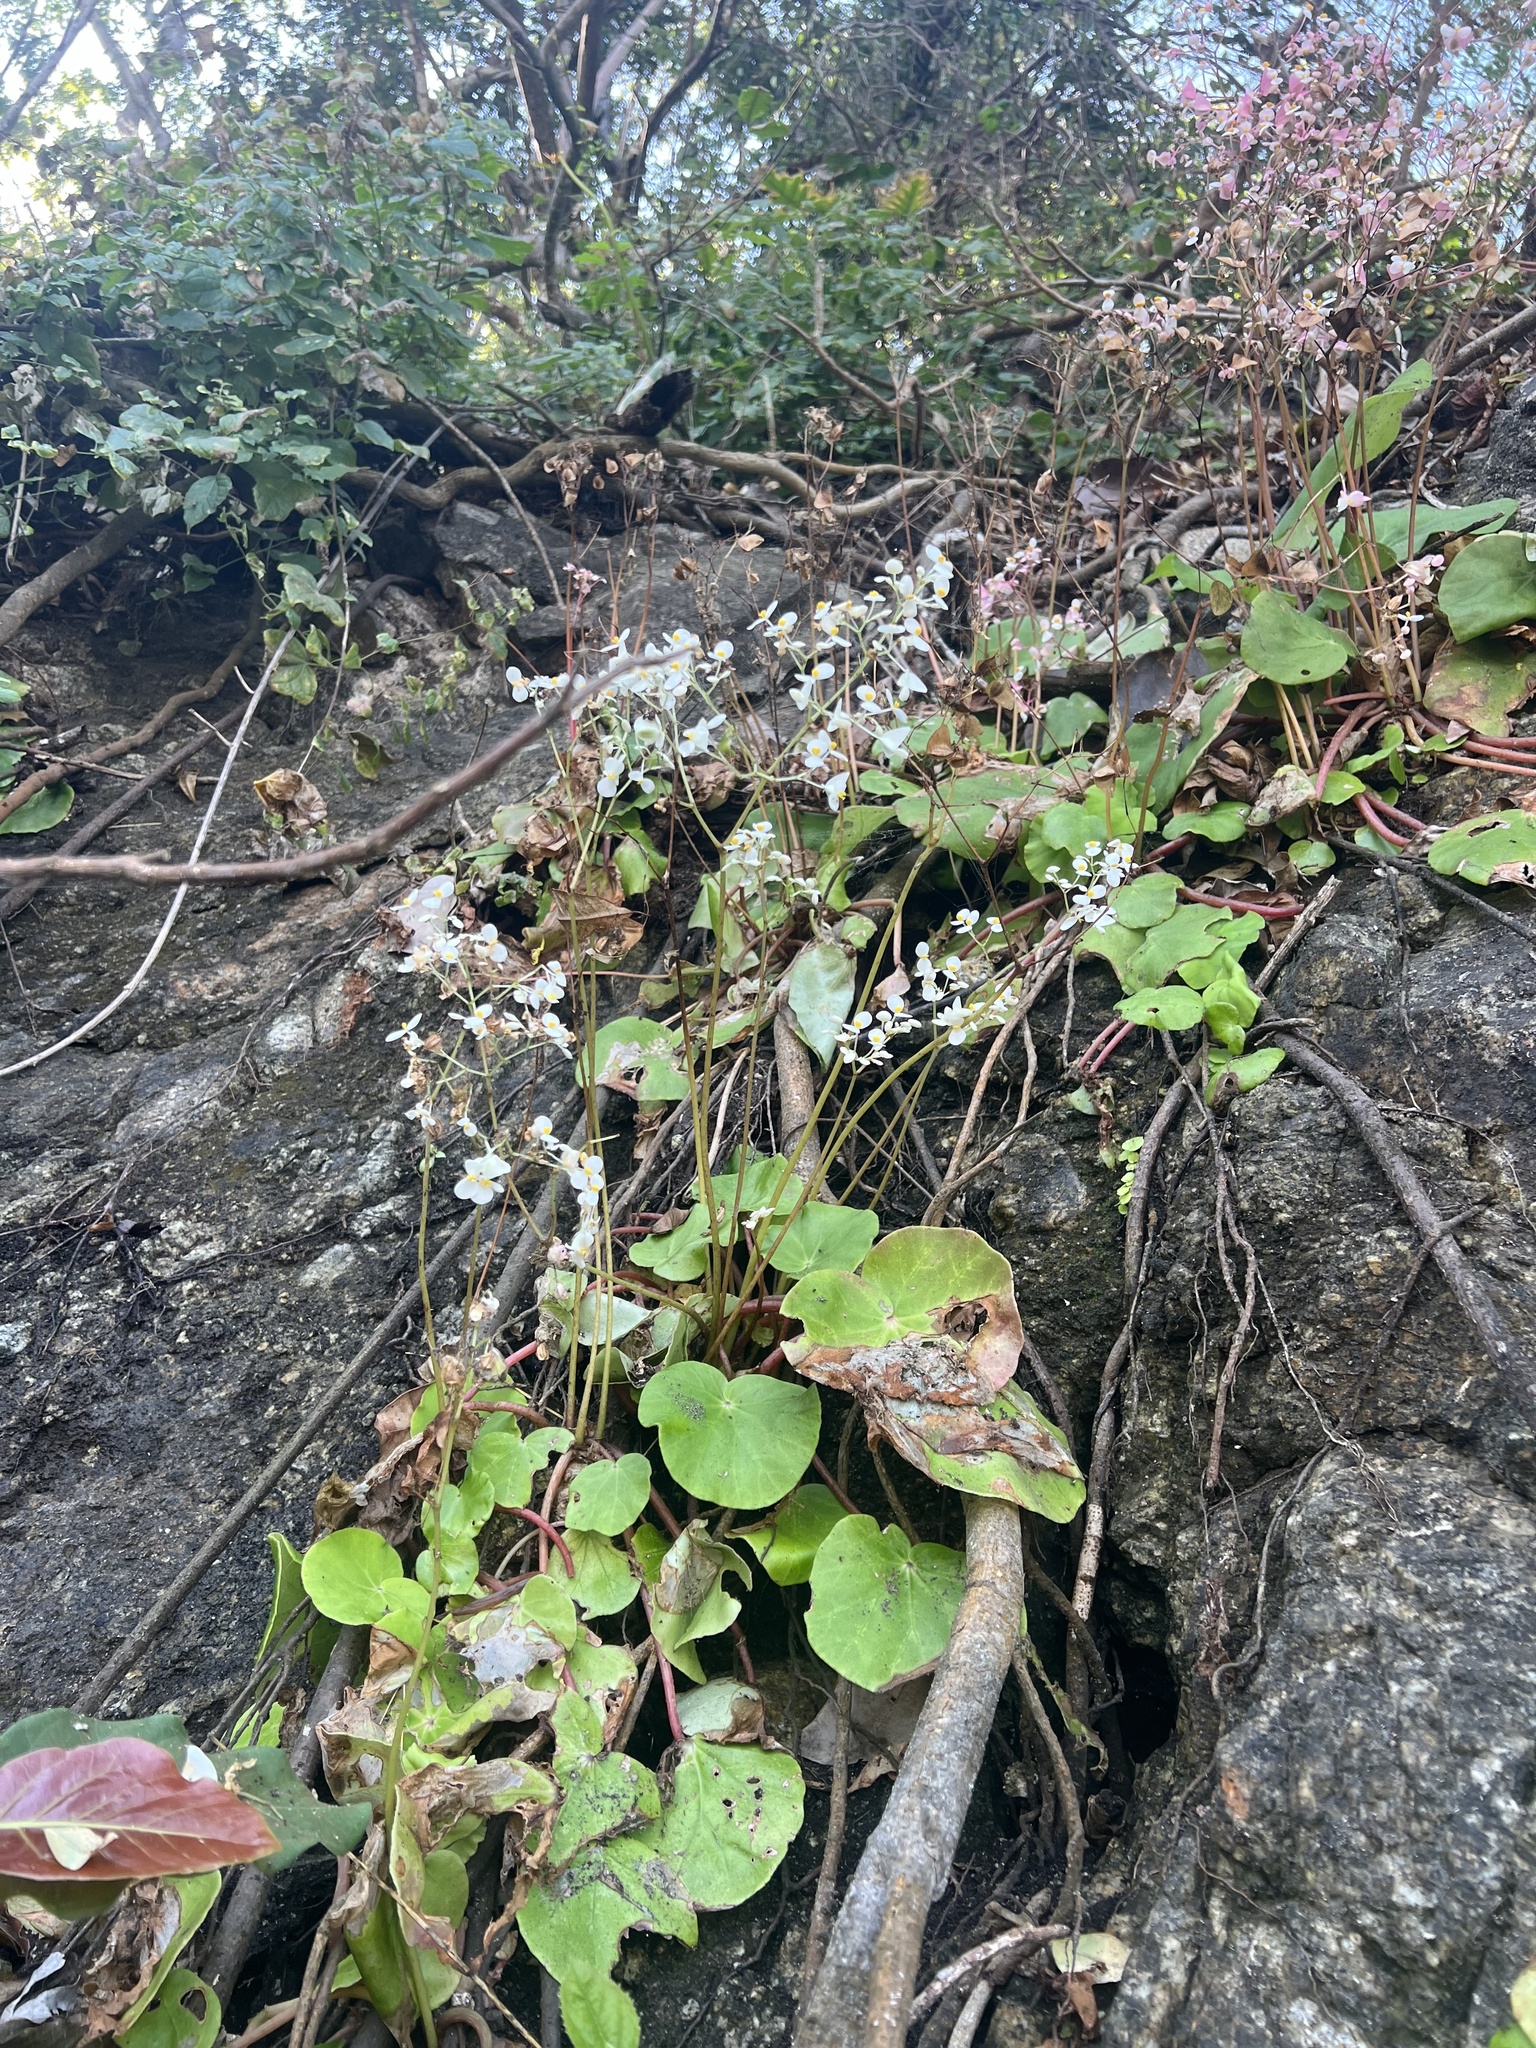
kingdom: Plantae
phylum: Tracheophyta
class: Magnoliopsida
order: Cucurbitales
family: Begoniaceae
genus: Begonia
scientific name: Begonia jaliscana
